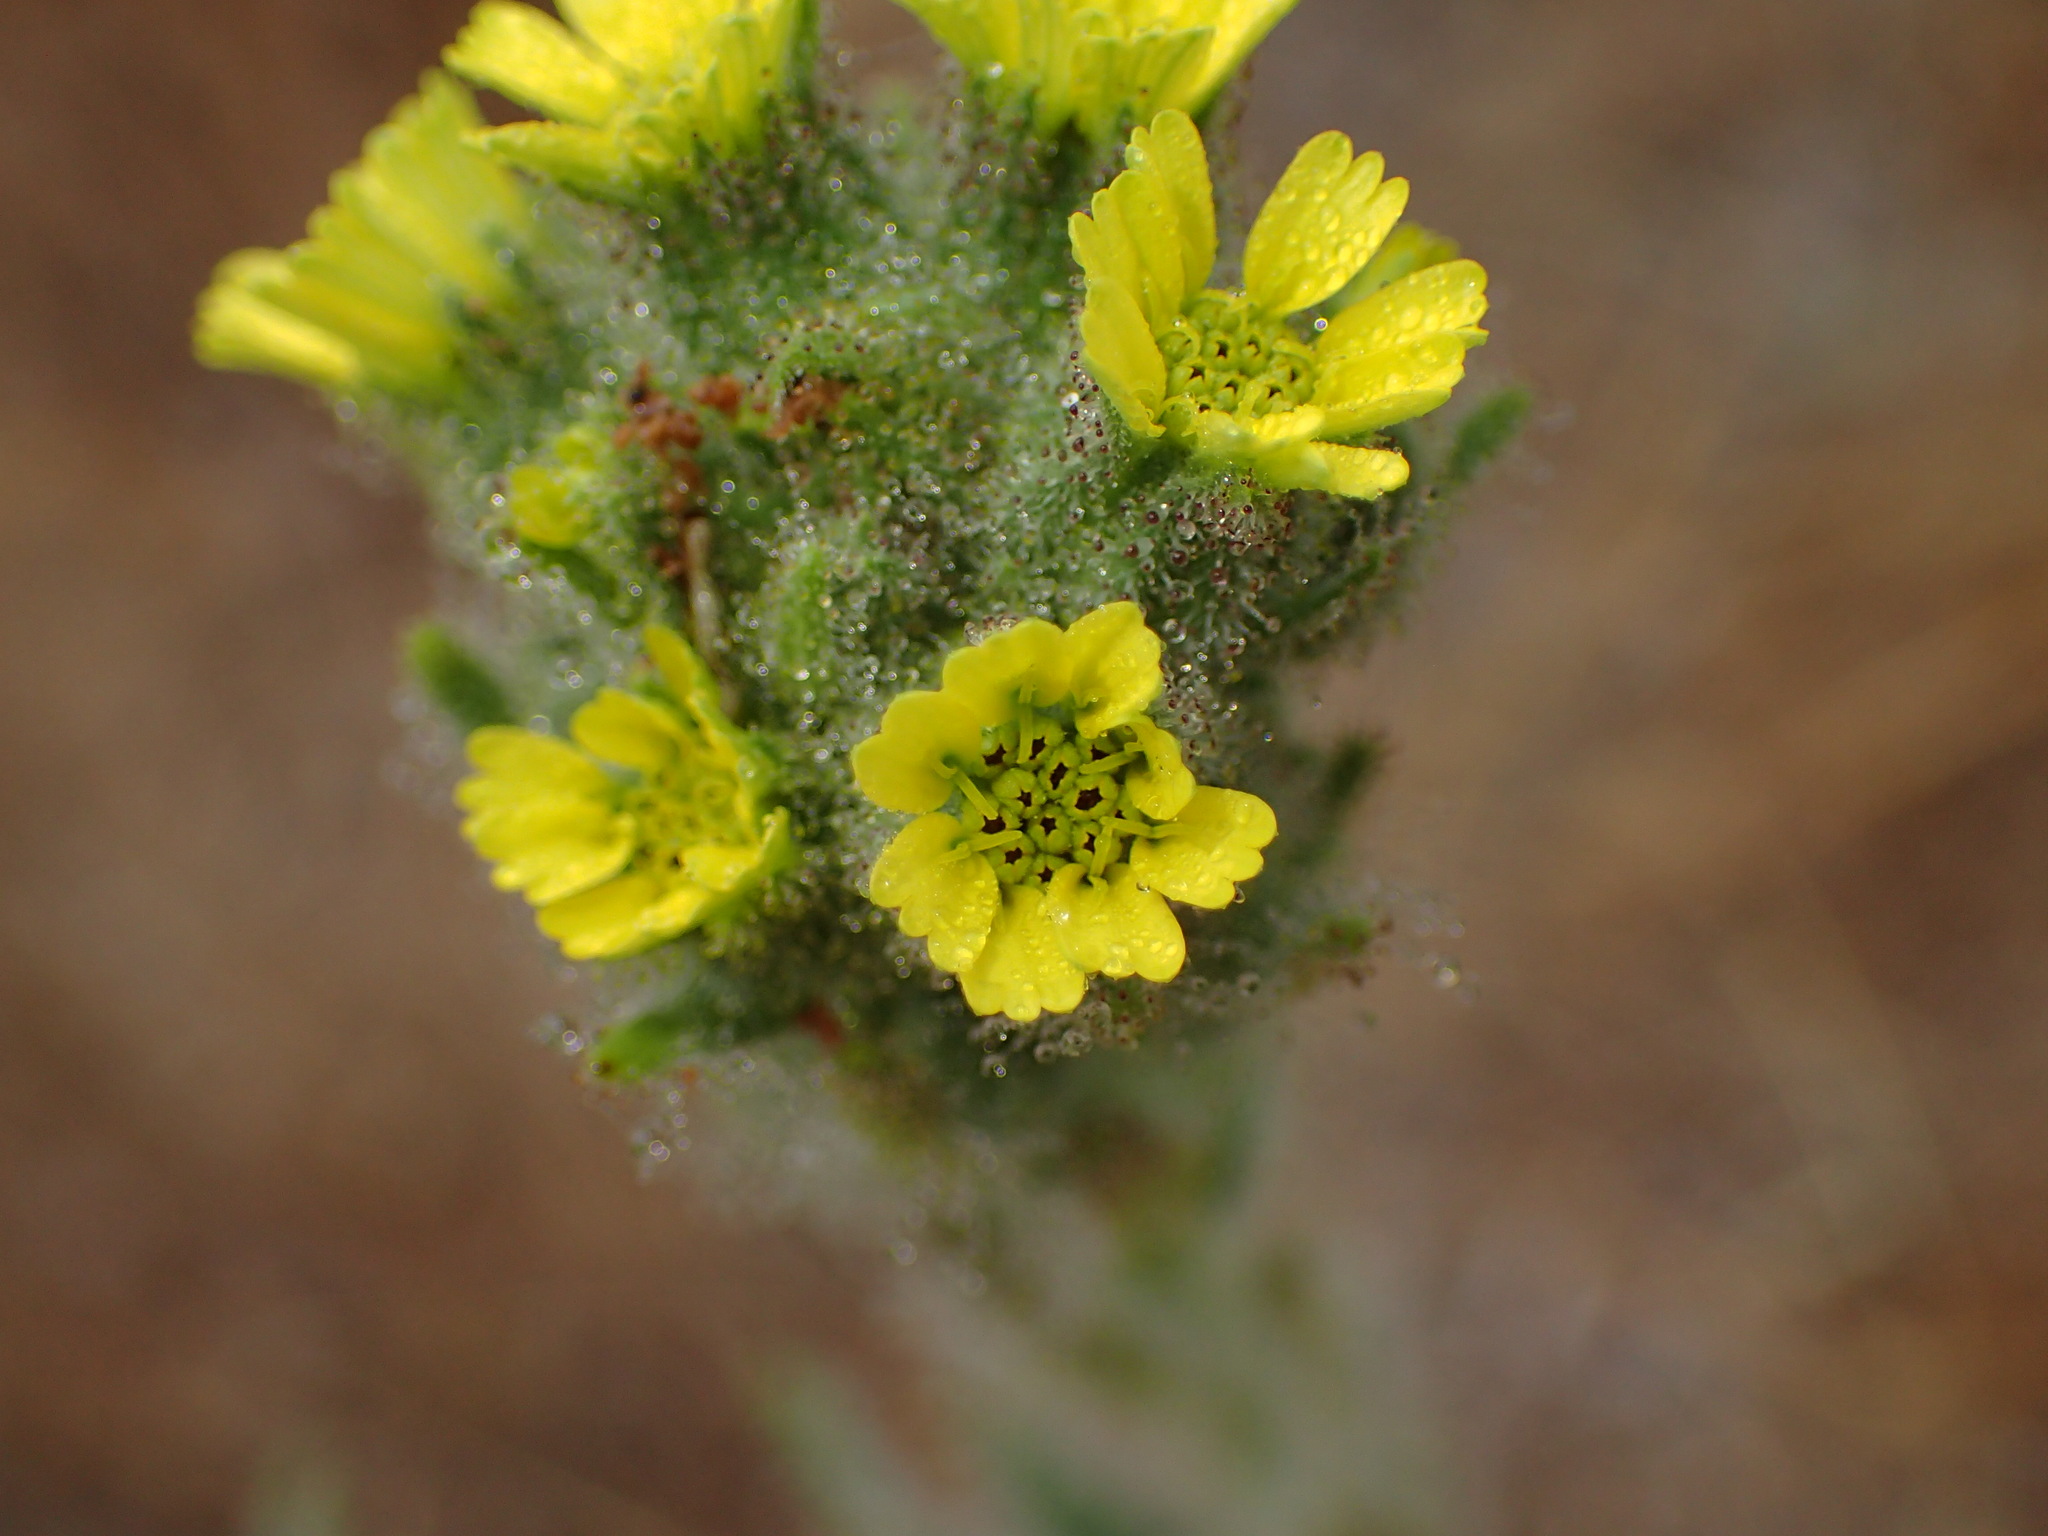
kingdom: Plantae
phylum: Tracheophyta
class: Magnoliopsida
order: Asterales
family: Asteraceae
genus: Madia
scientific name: Madia sativa
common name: Coast tarweed
